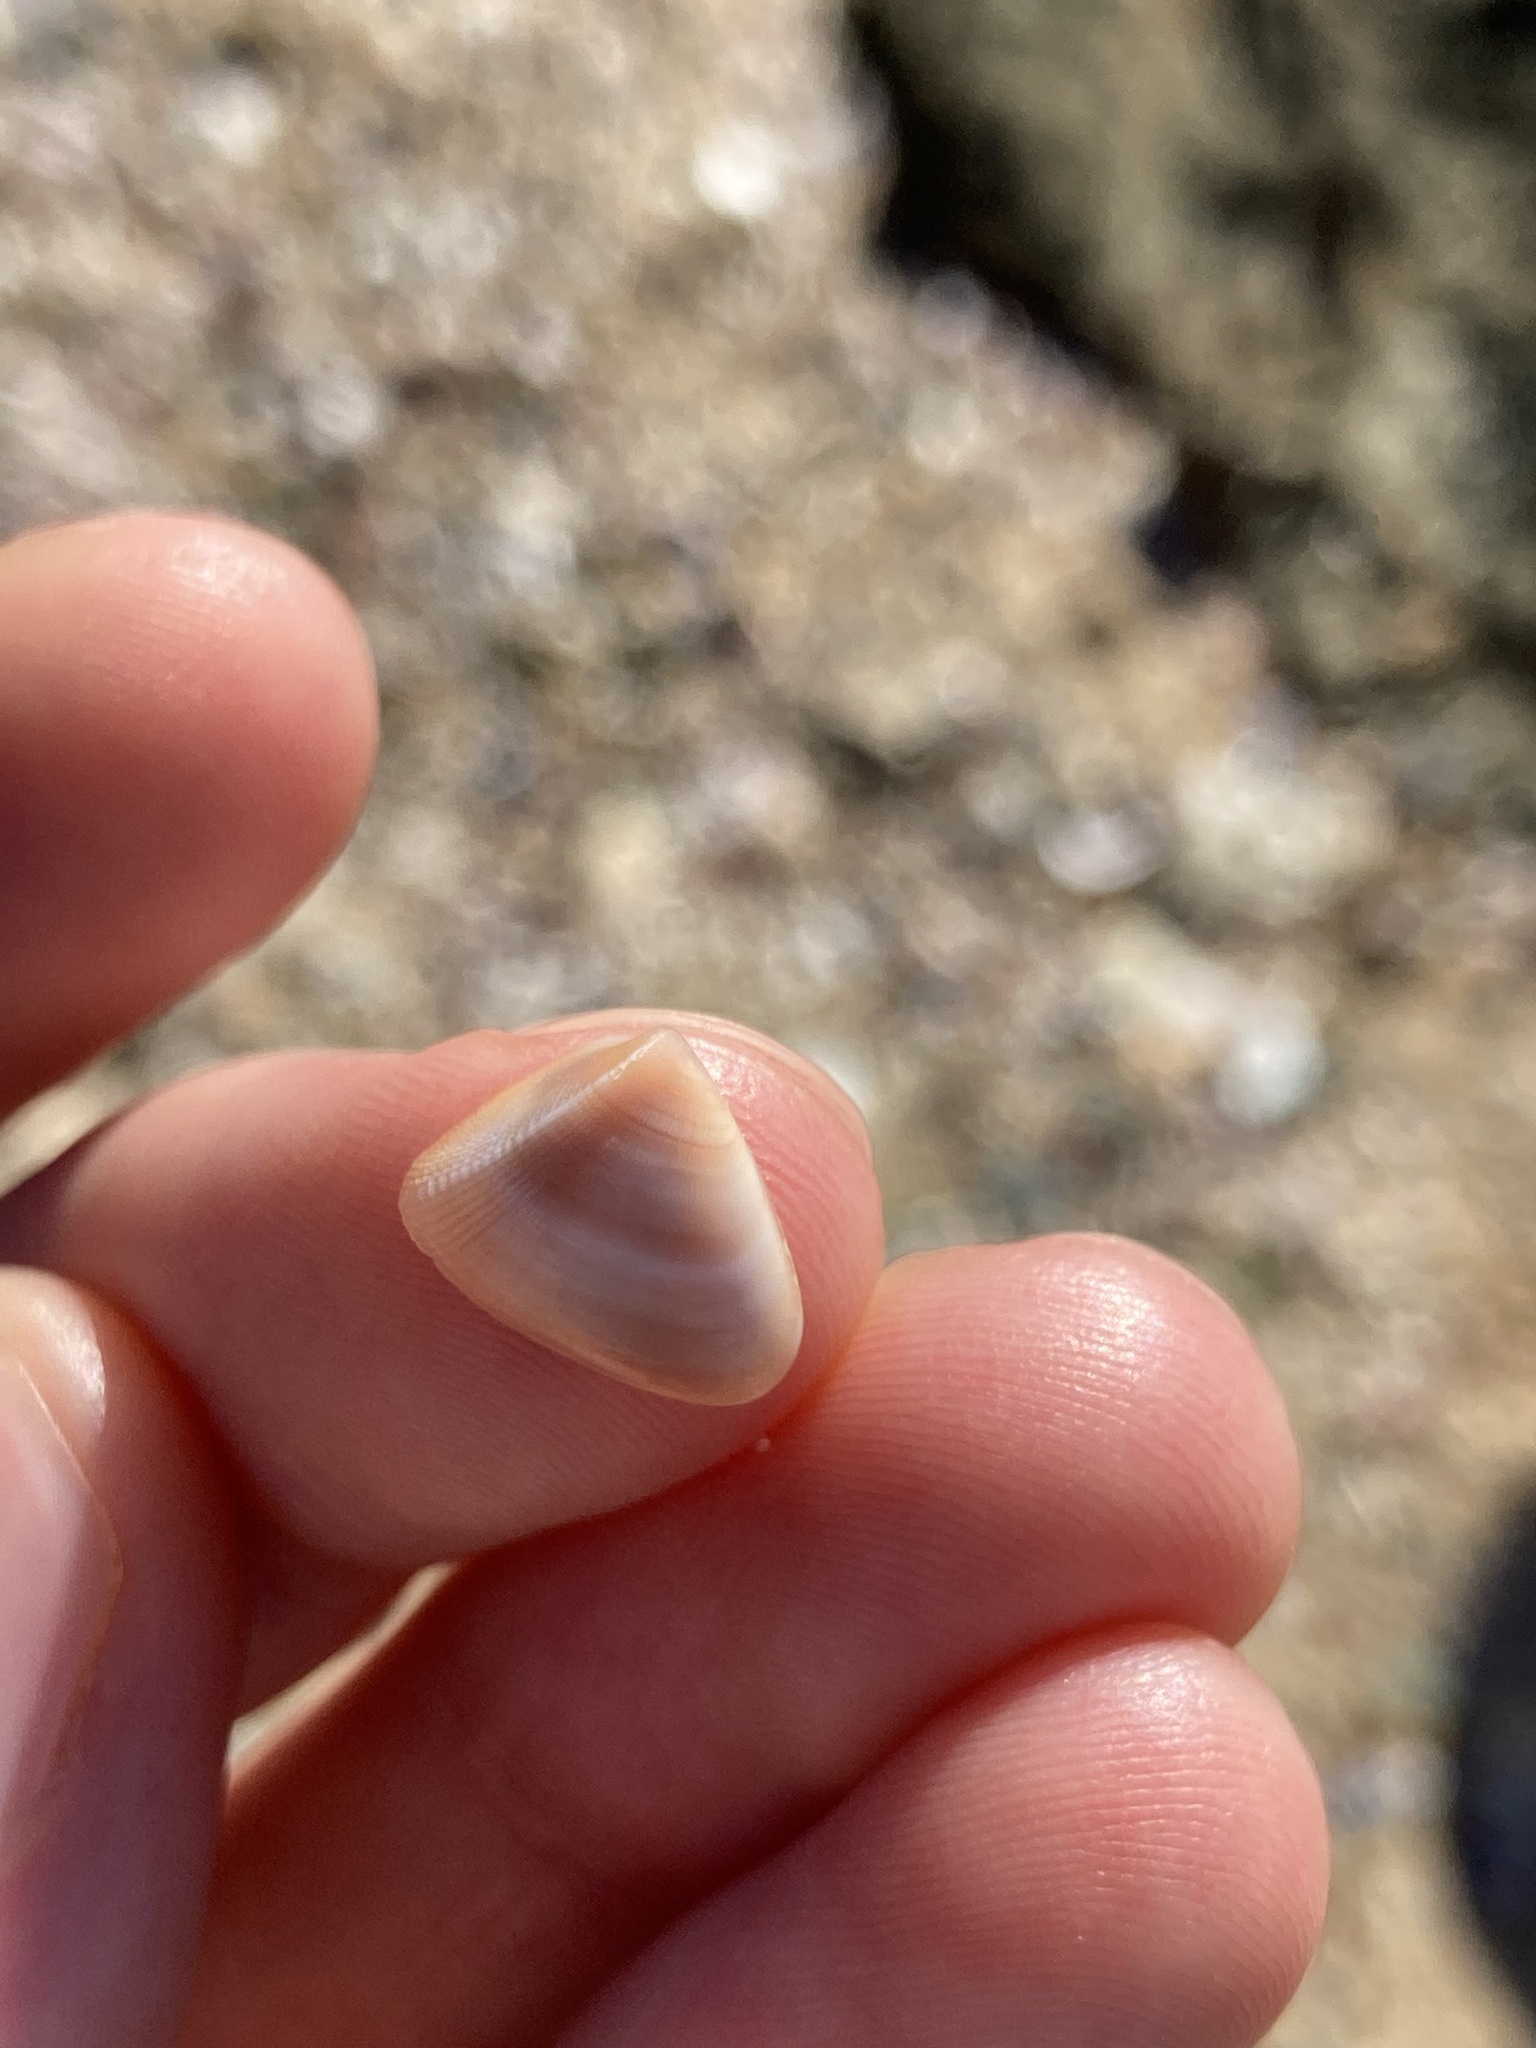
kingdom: Animalia
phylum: Mollusca
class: Bivalvia
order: Cardiida
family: Donacidae
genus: Donax
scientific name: Donax brazieri
